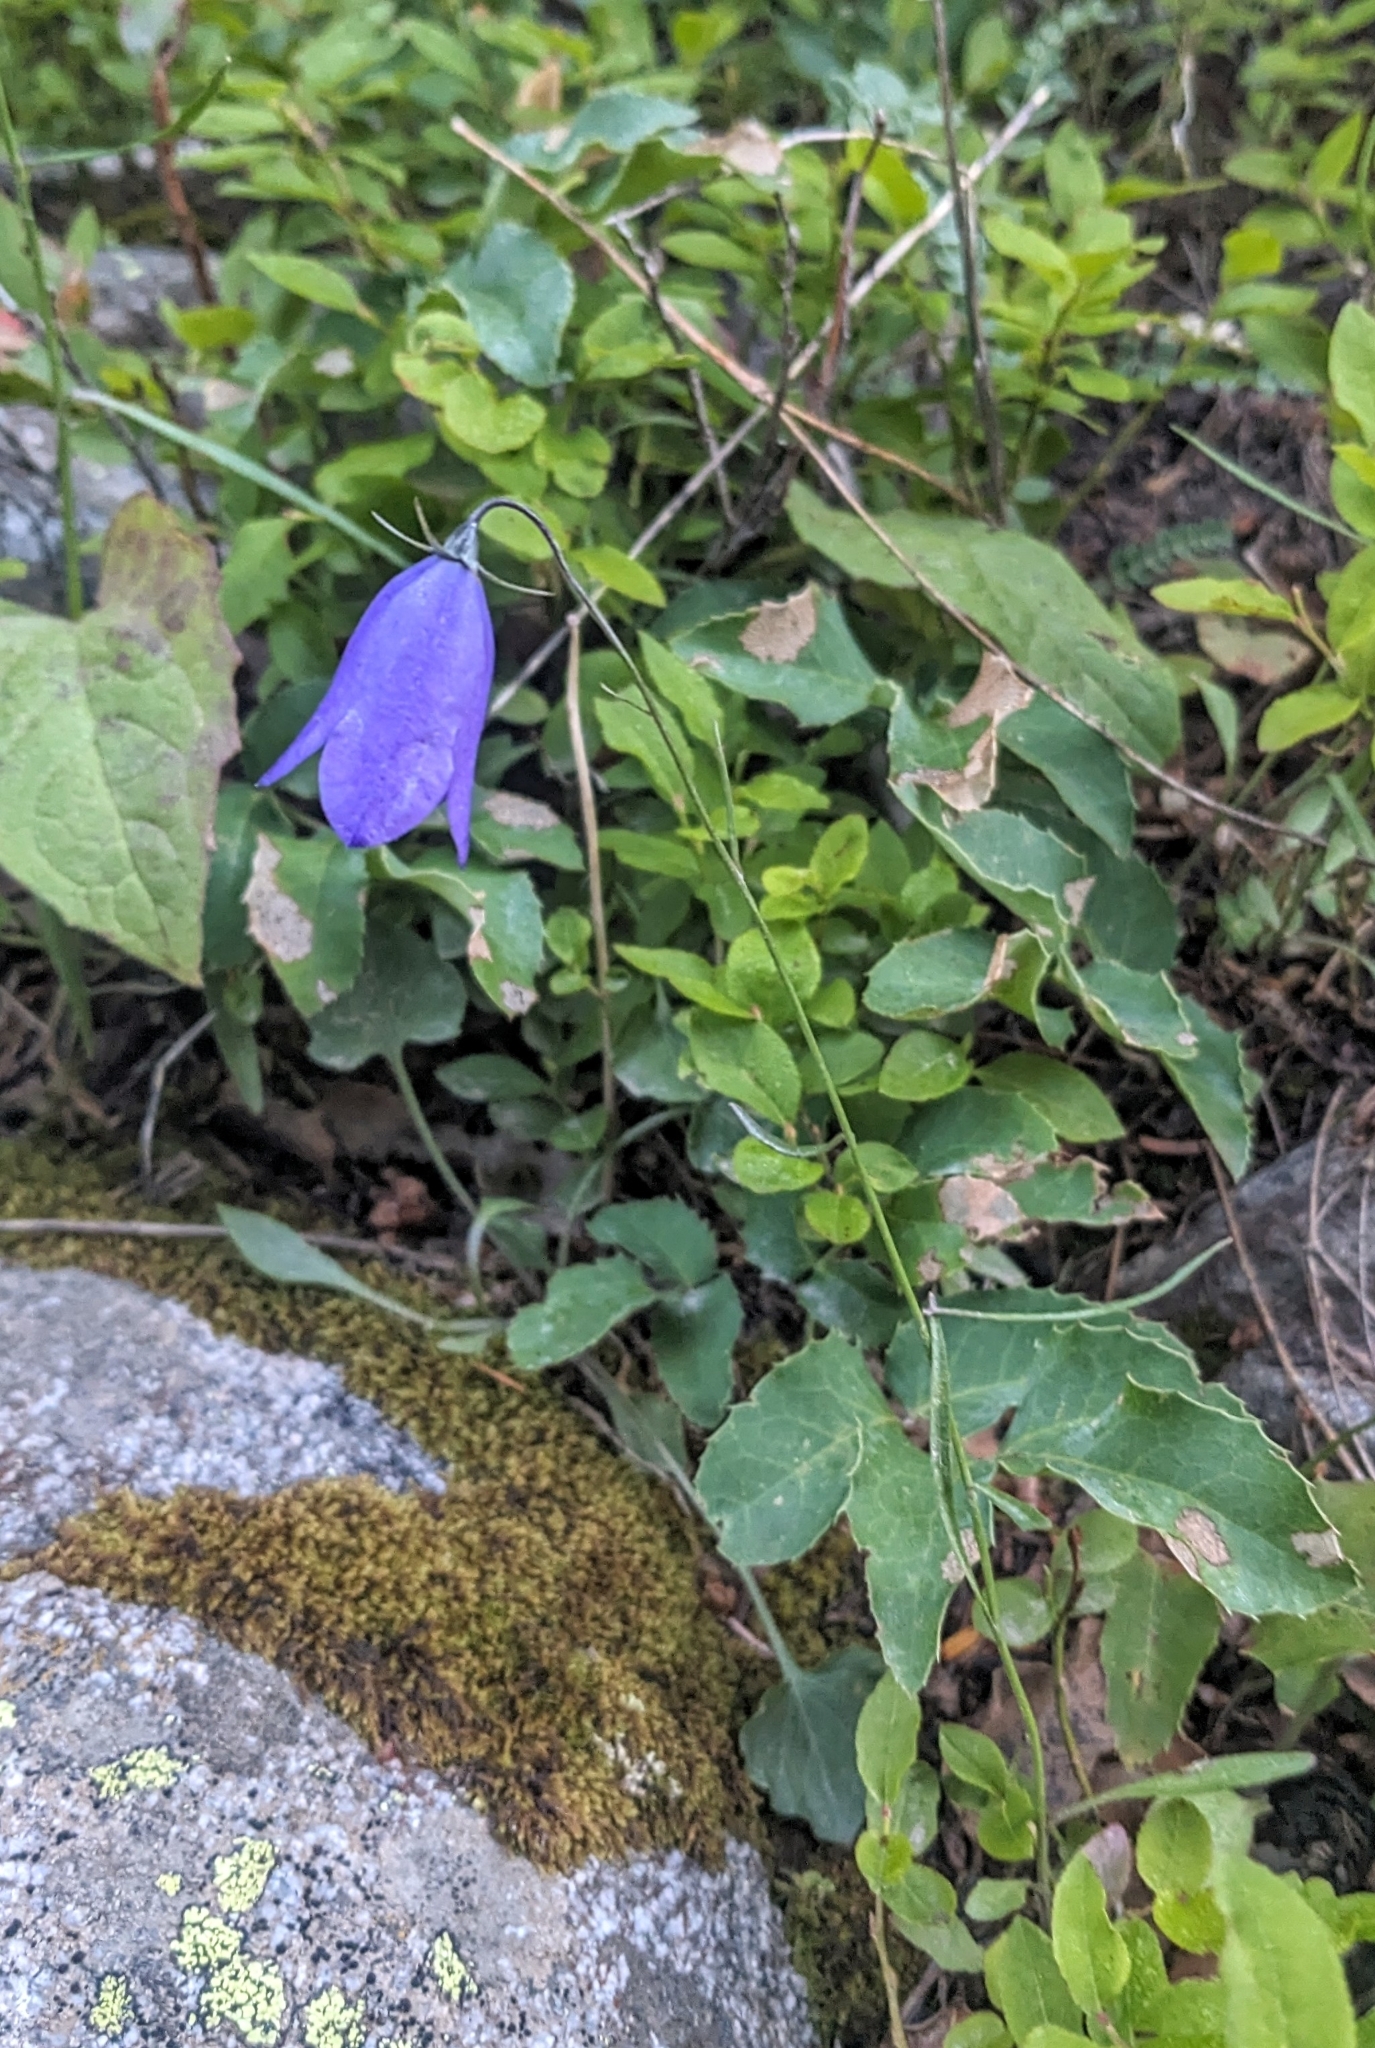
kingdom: Plantae
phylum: Tracheophyta
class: Magnoliopsida
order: Asterales
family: Campanulaceae
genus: Campanula
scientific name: Campanula petiolata
